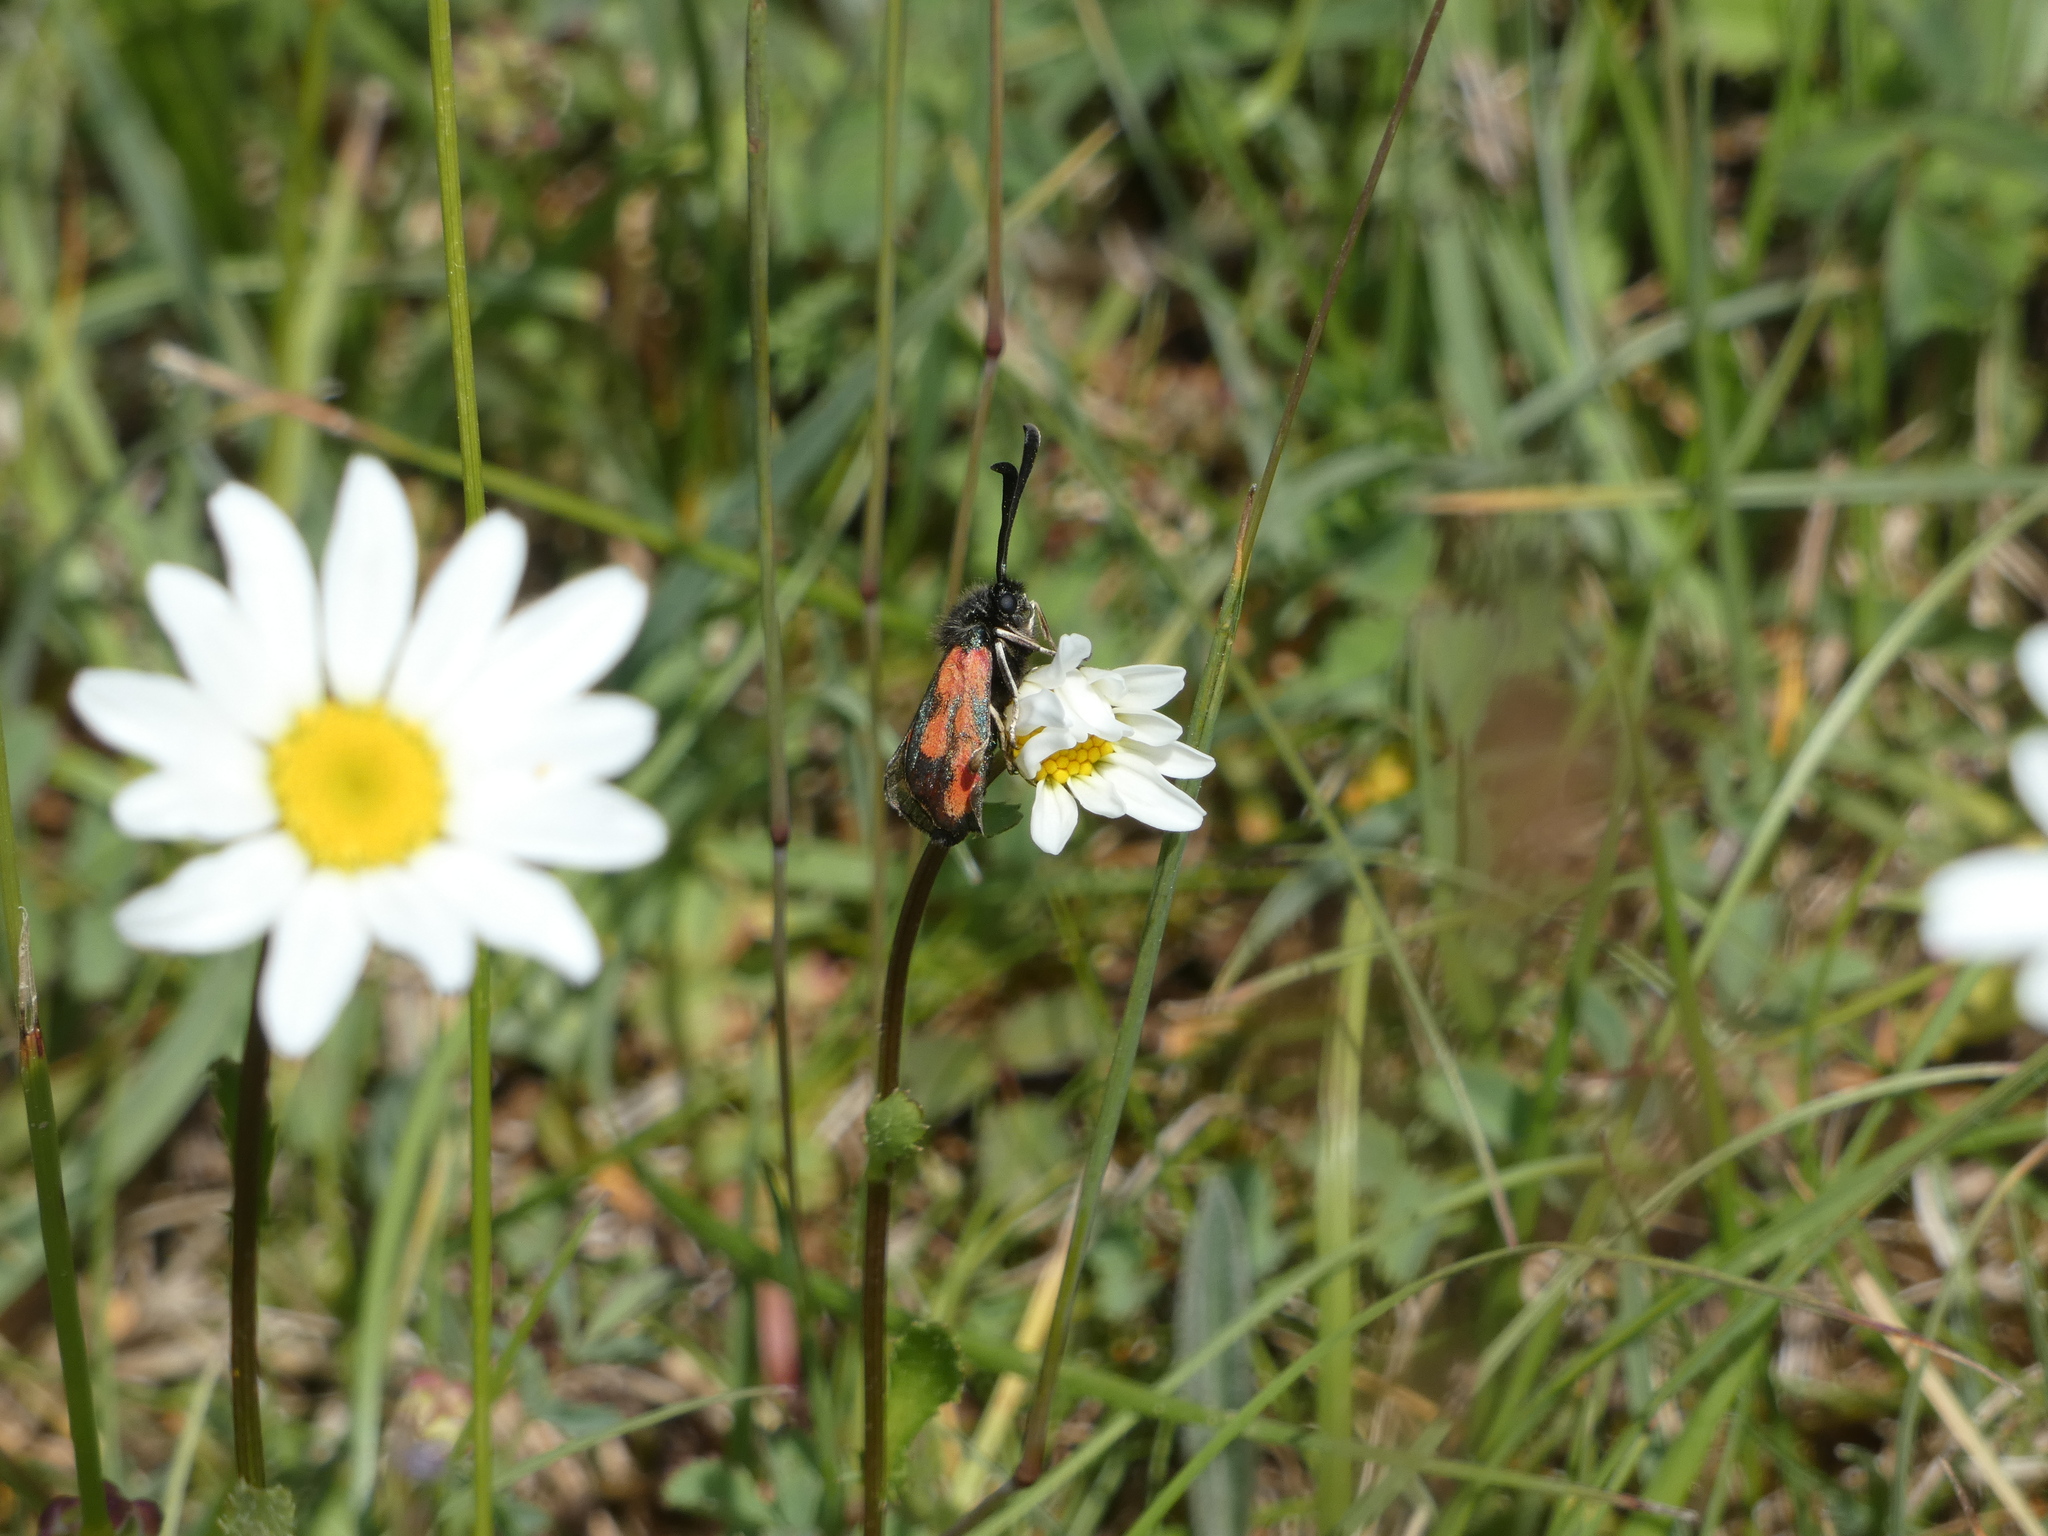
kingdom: Animalia
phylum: Arthropoda
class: Insecta
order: Lepidoptera
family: Zygaenidae
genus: Zygaena
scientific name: Zygaena loti
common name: Slender scotch burnet
